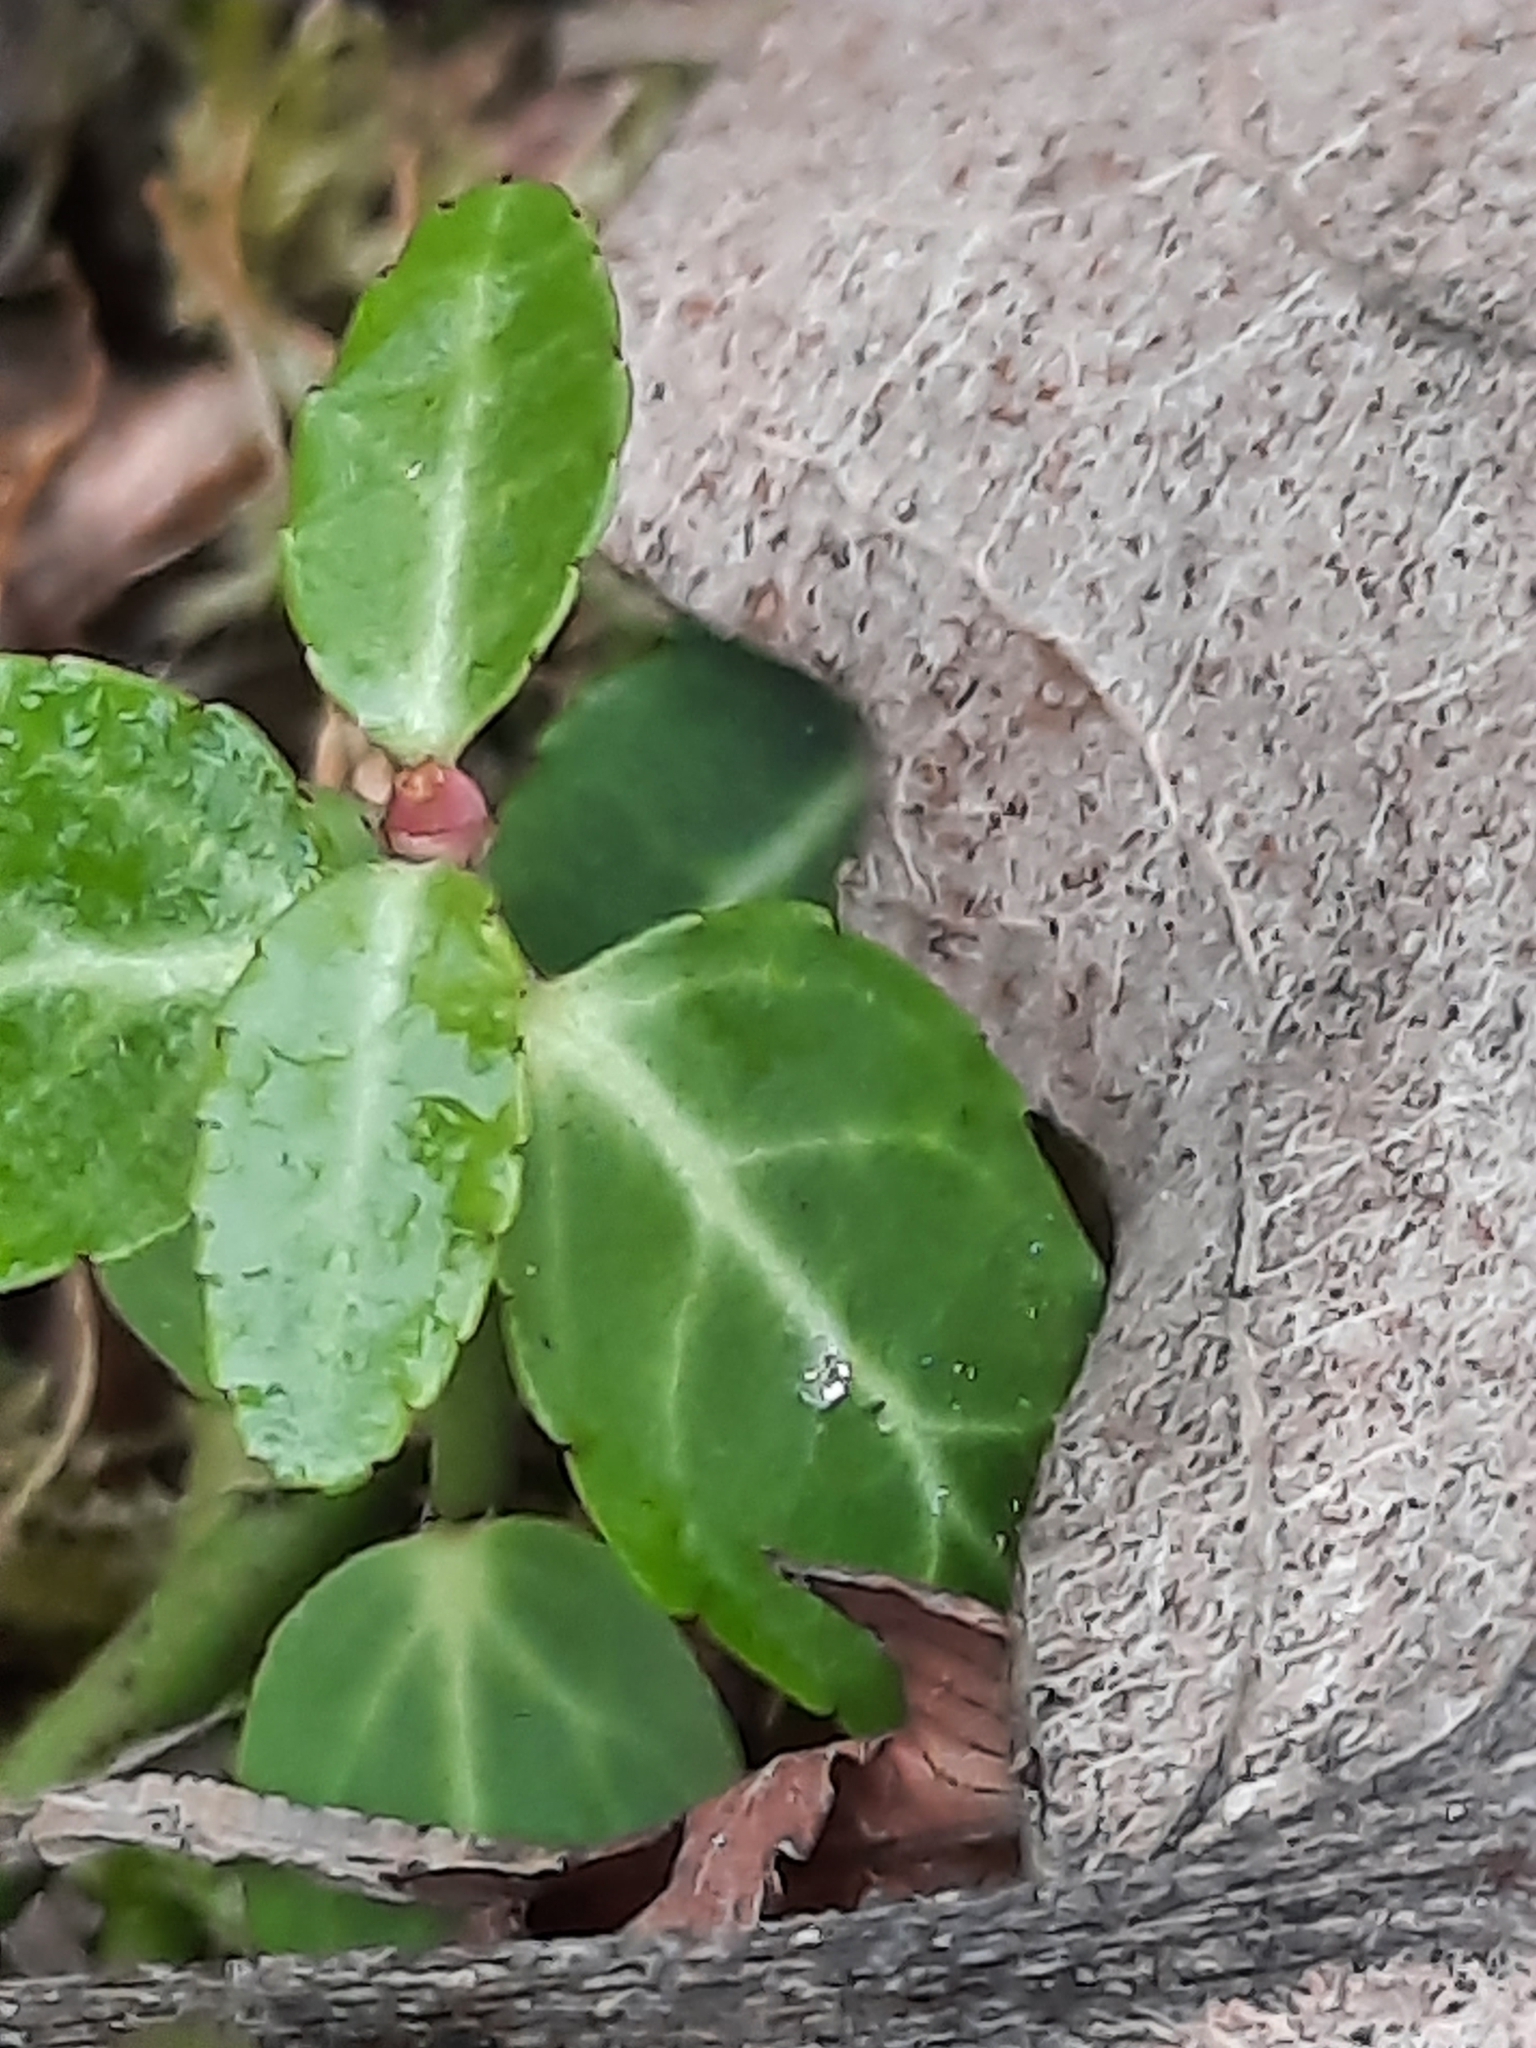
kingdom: Plantae
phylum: Tracheophyta
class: Magnoliopsida
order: Celastrales
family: Celastraceae
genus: Euonymus
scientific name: Euonymus fortunei
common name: Climbing euonymus
